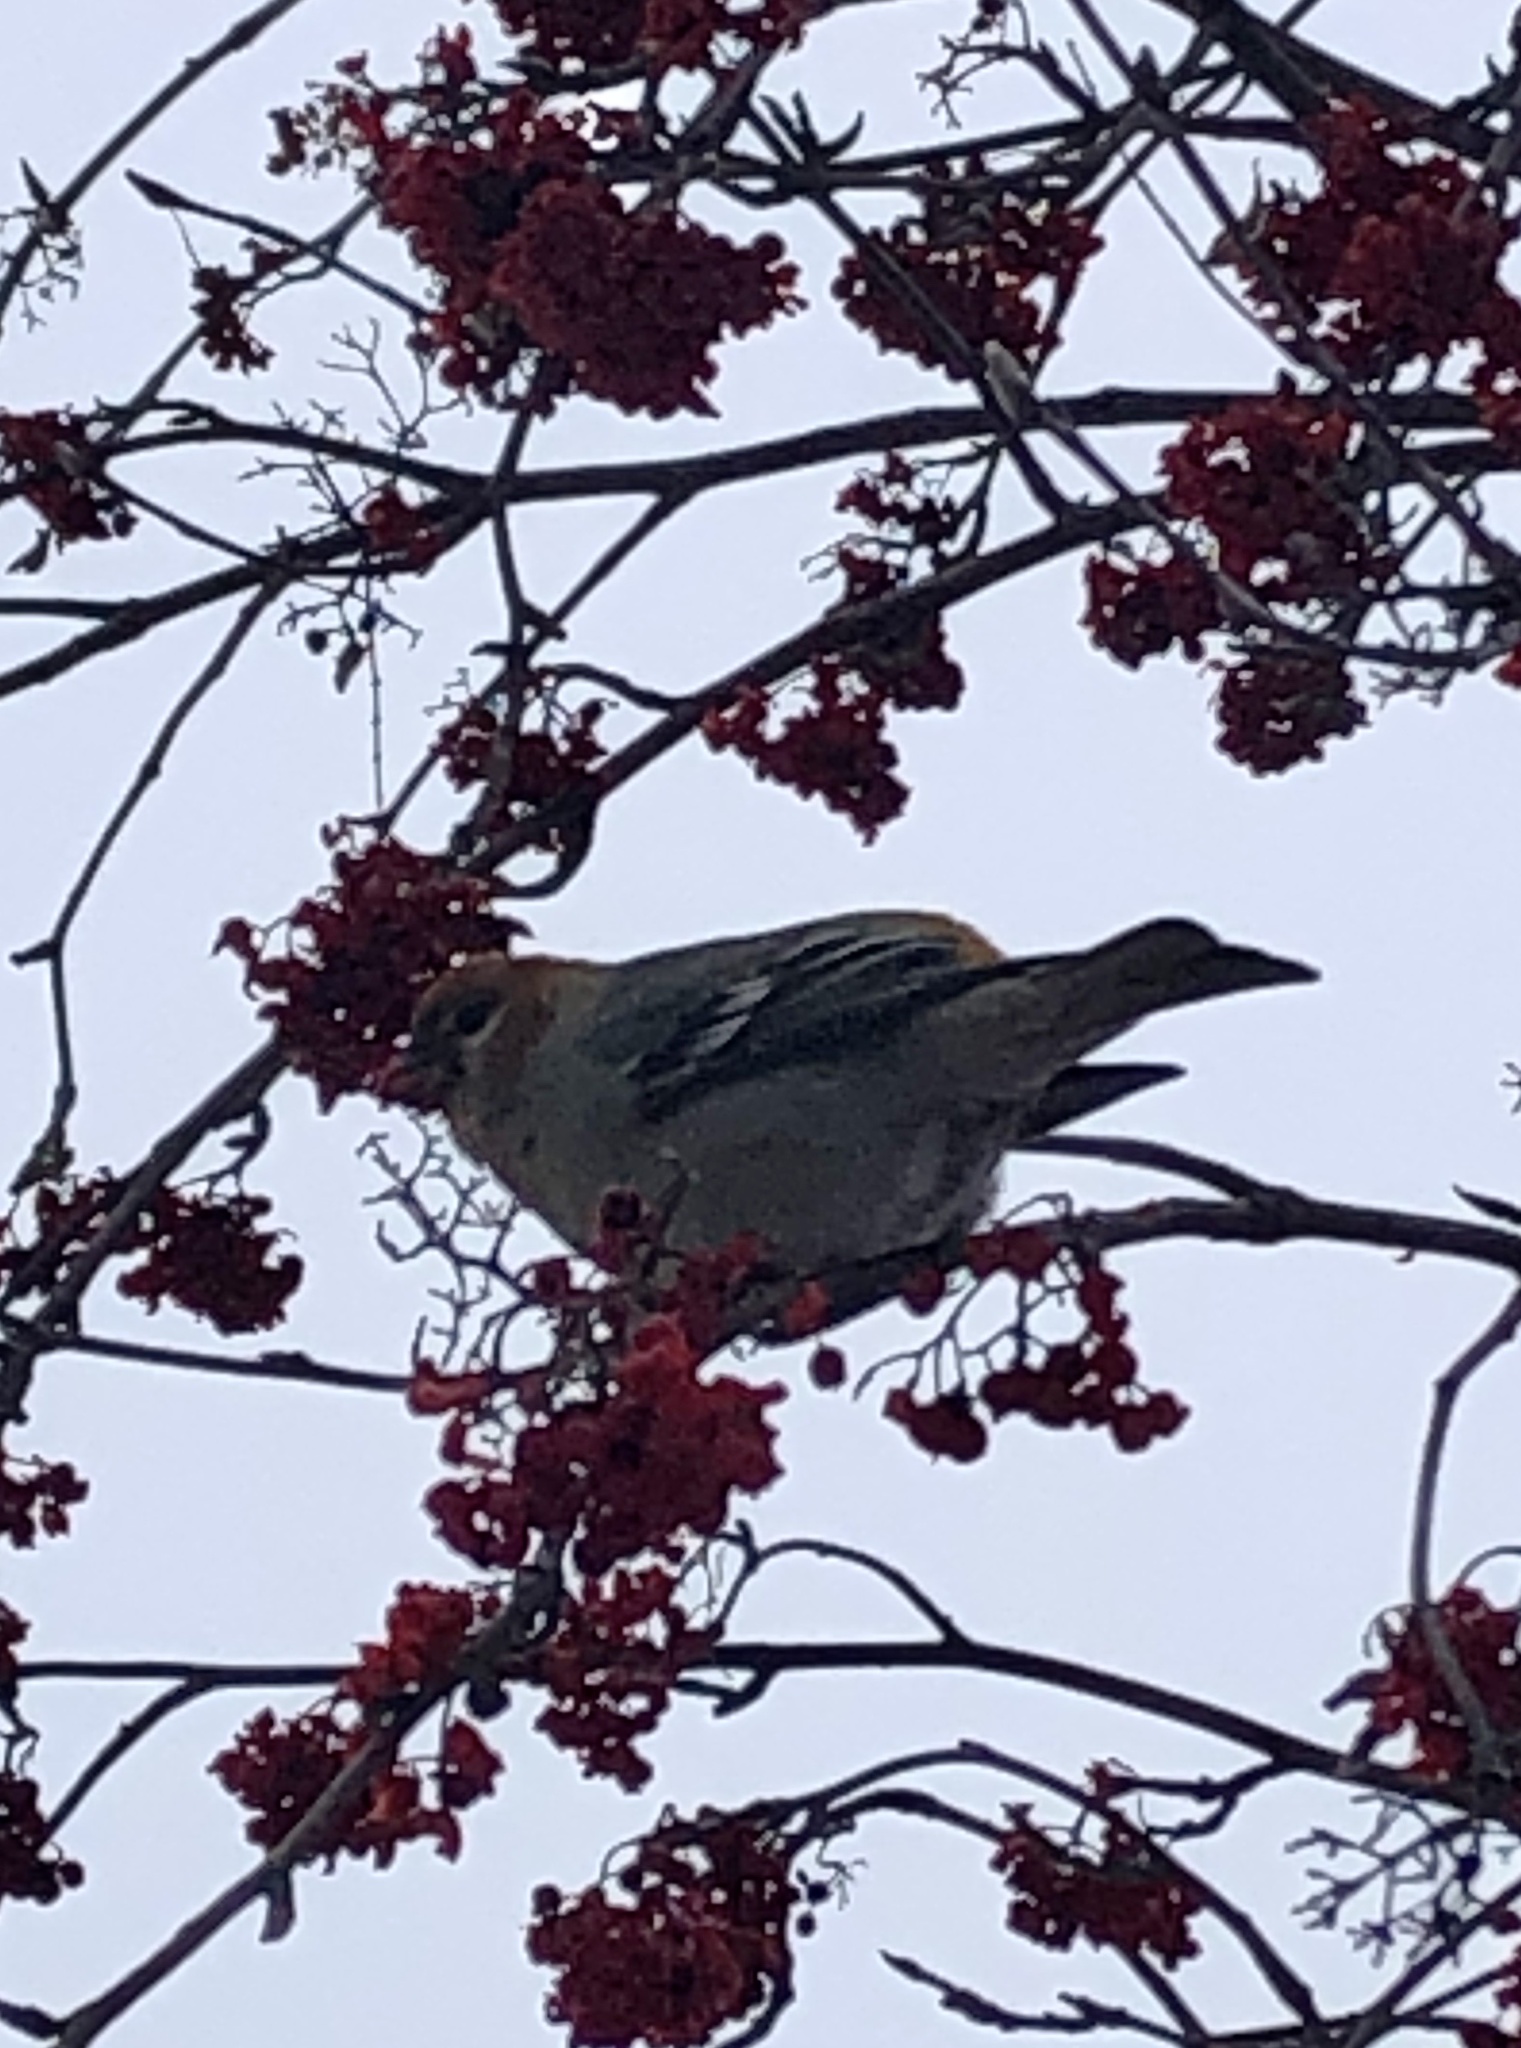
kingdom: Animalia
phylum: Chordata
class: Aves
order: Passeriformes
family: Fringillidae
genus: Pinicola
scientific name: Pinicola enucleator
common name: Pine grosbeak
